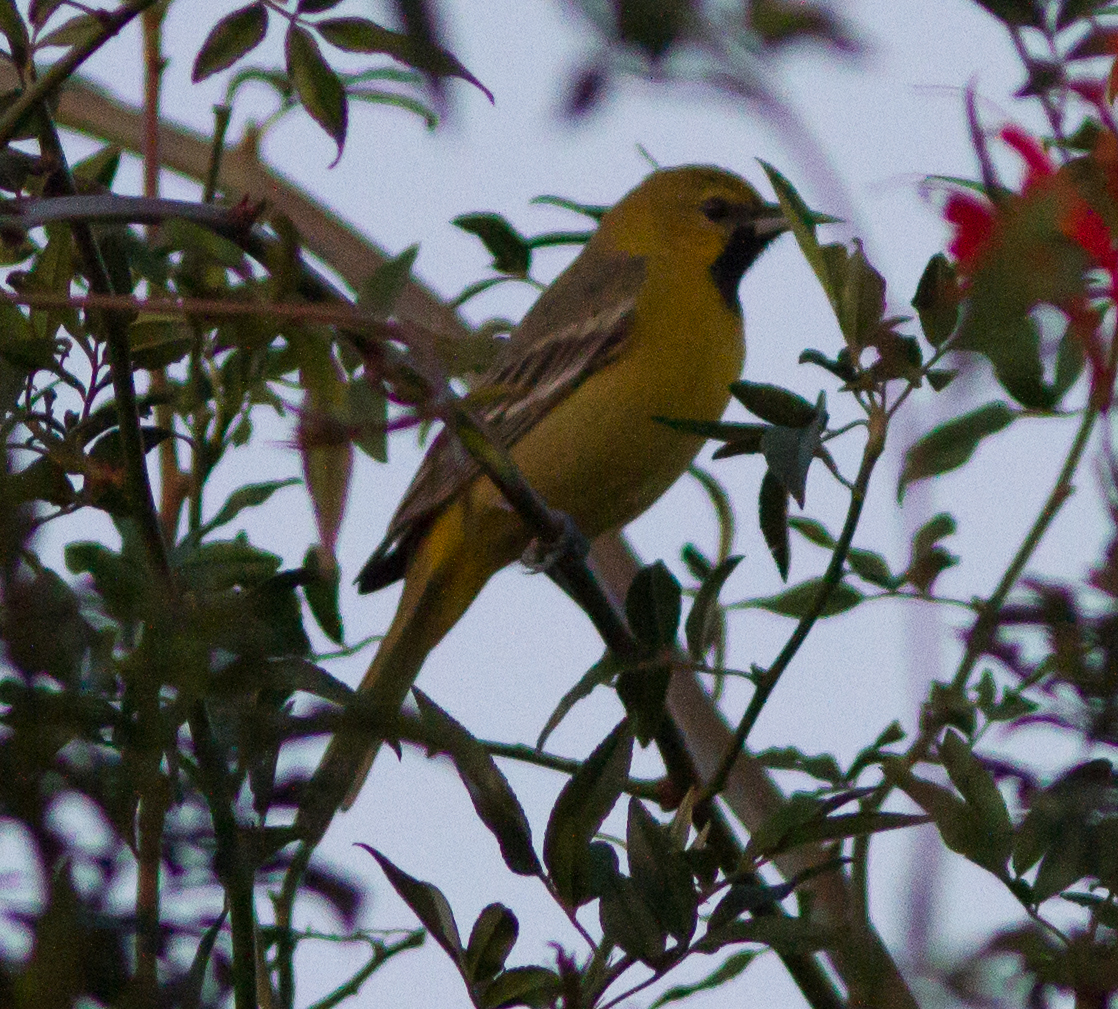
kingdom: Animalia
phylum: Chordata
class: Aves
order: Passeriformes
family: Icteridae
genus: Icterus
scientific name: Icterus spurius
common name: Orchard oriole
